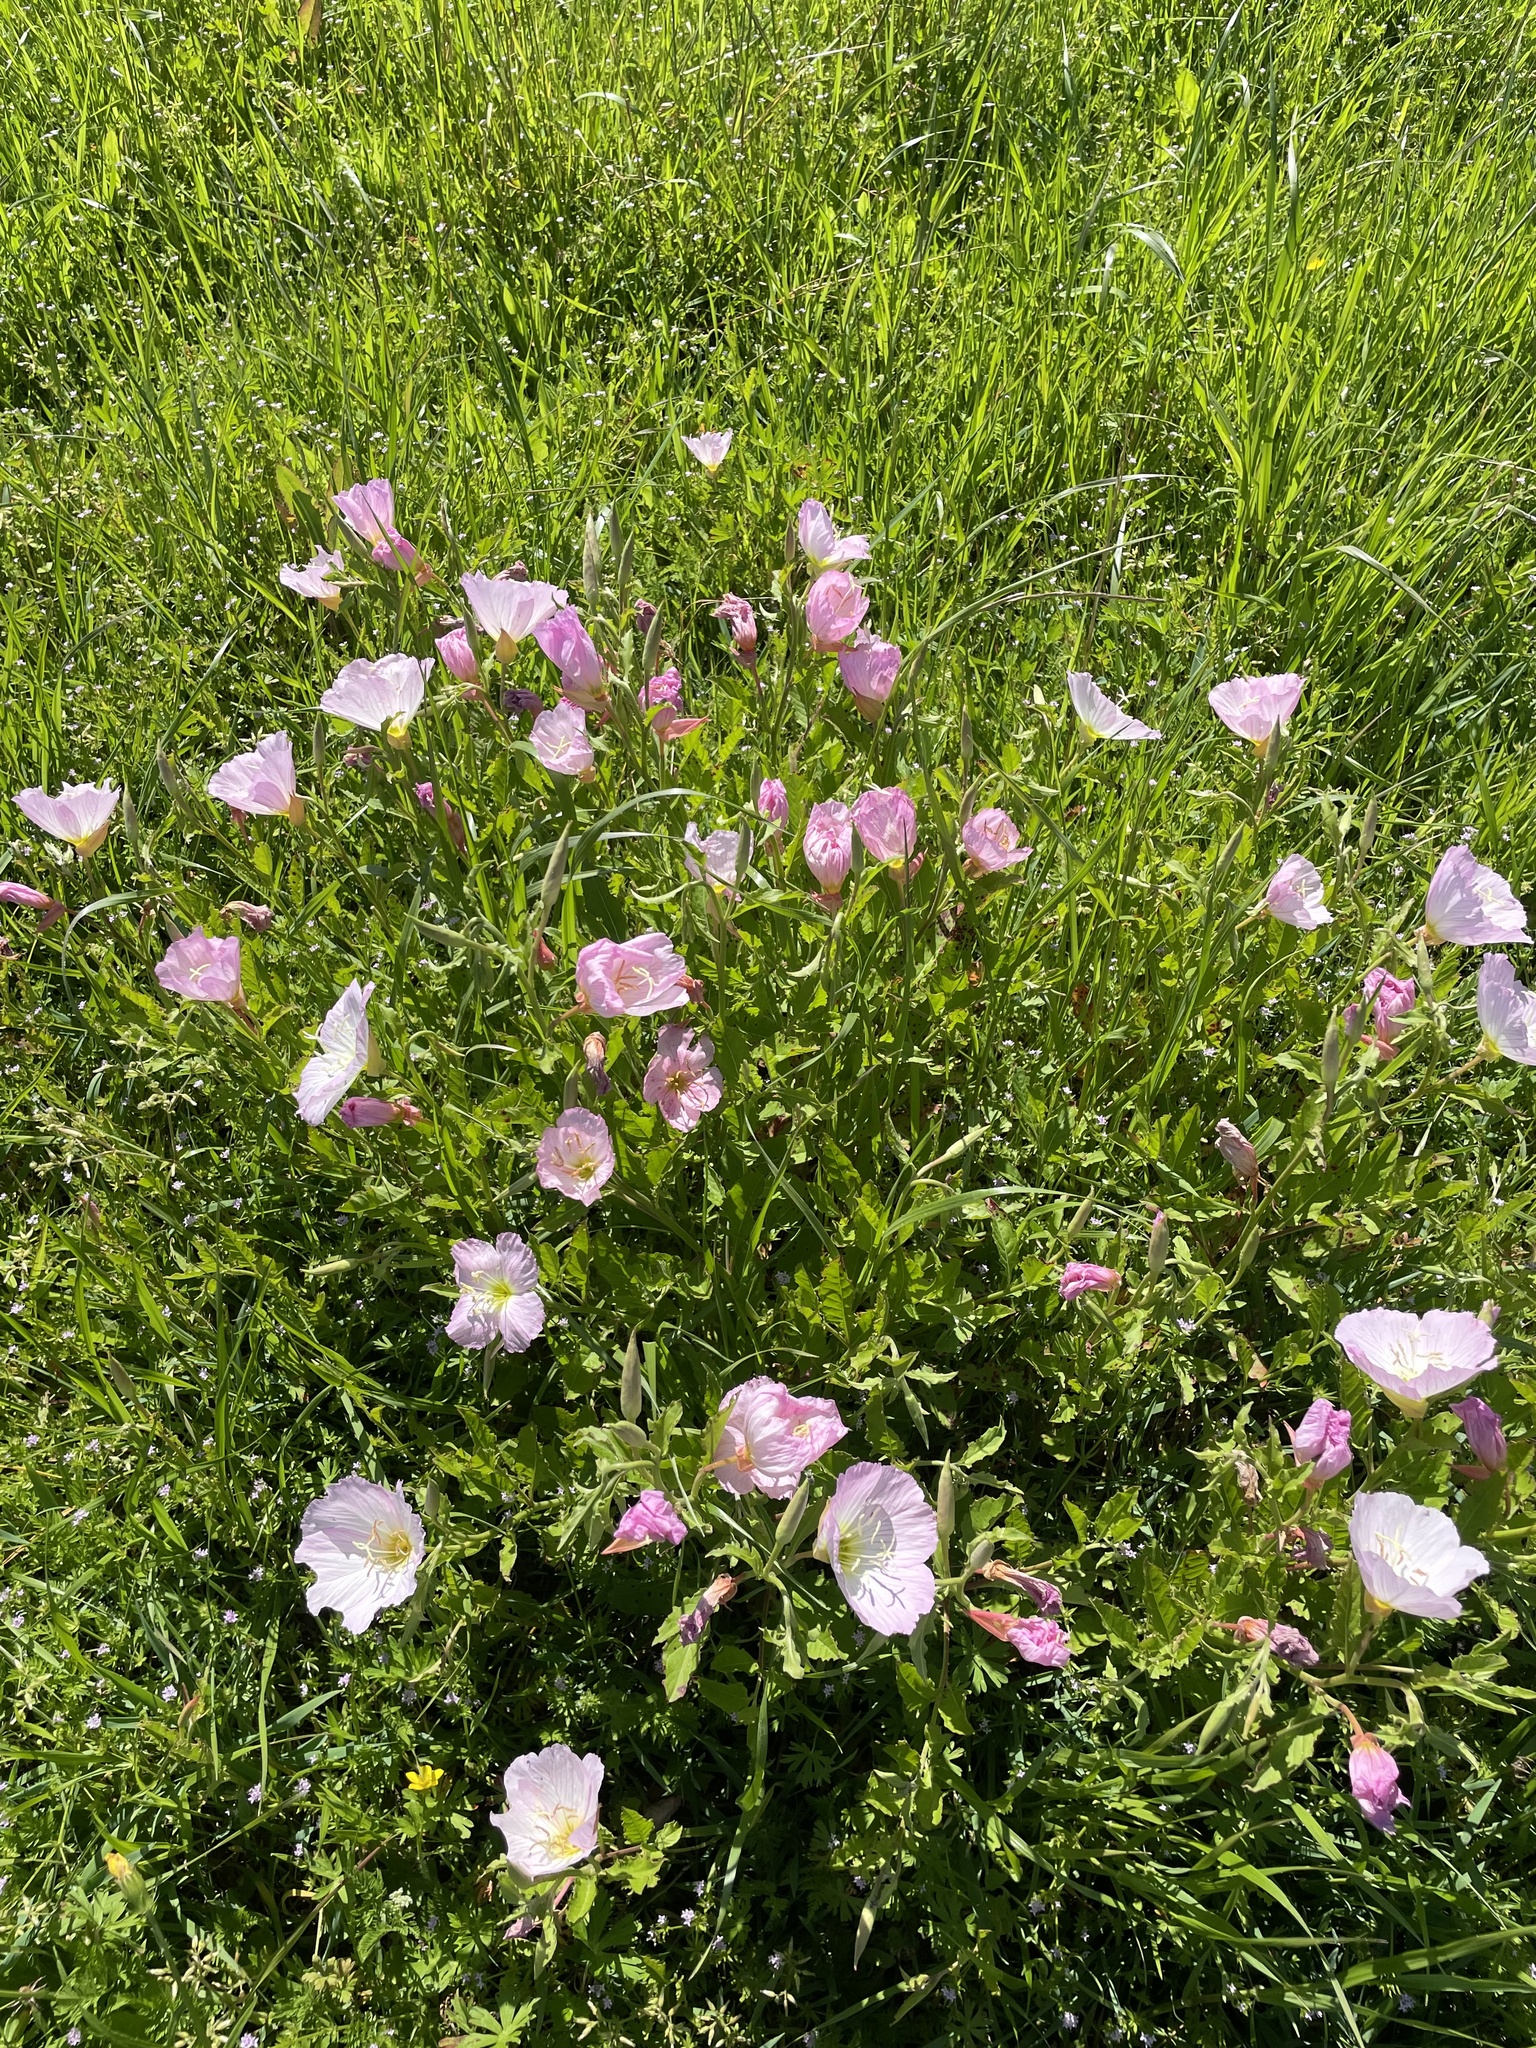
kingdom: Plantae
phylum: Tracheophyta
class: Magnoliopsida
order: Myrtales
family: Onagraceae
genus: Oenothera
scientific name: Oenothera speciosa
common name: White evening-primrose
